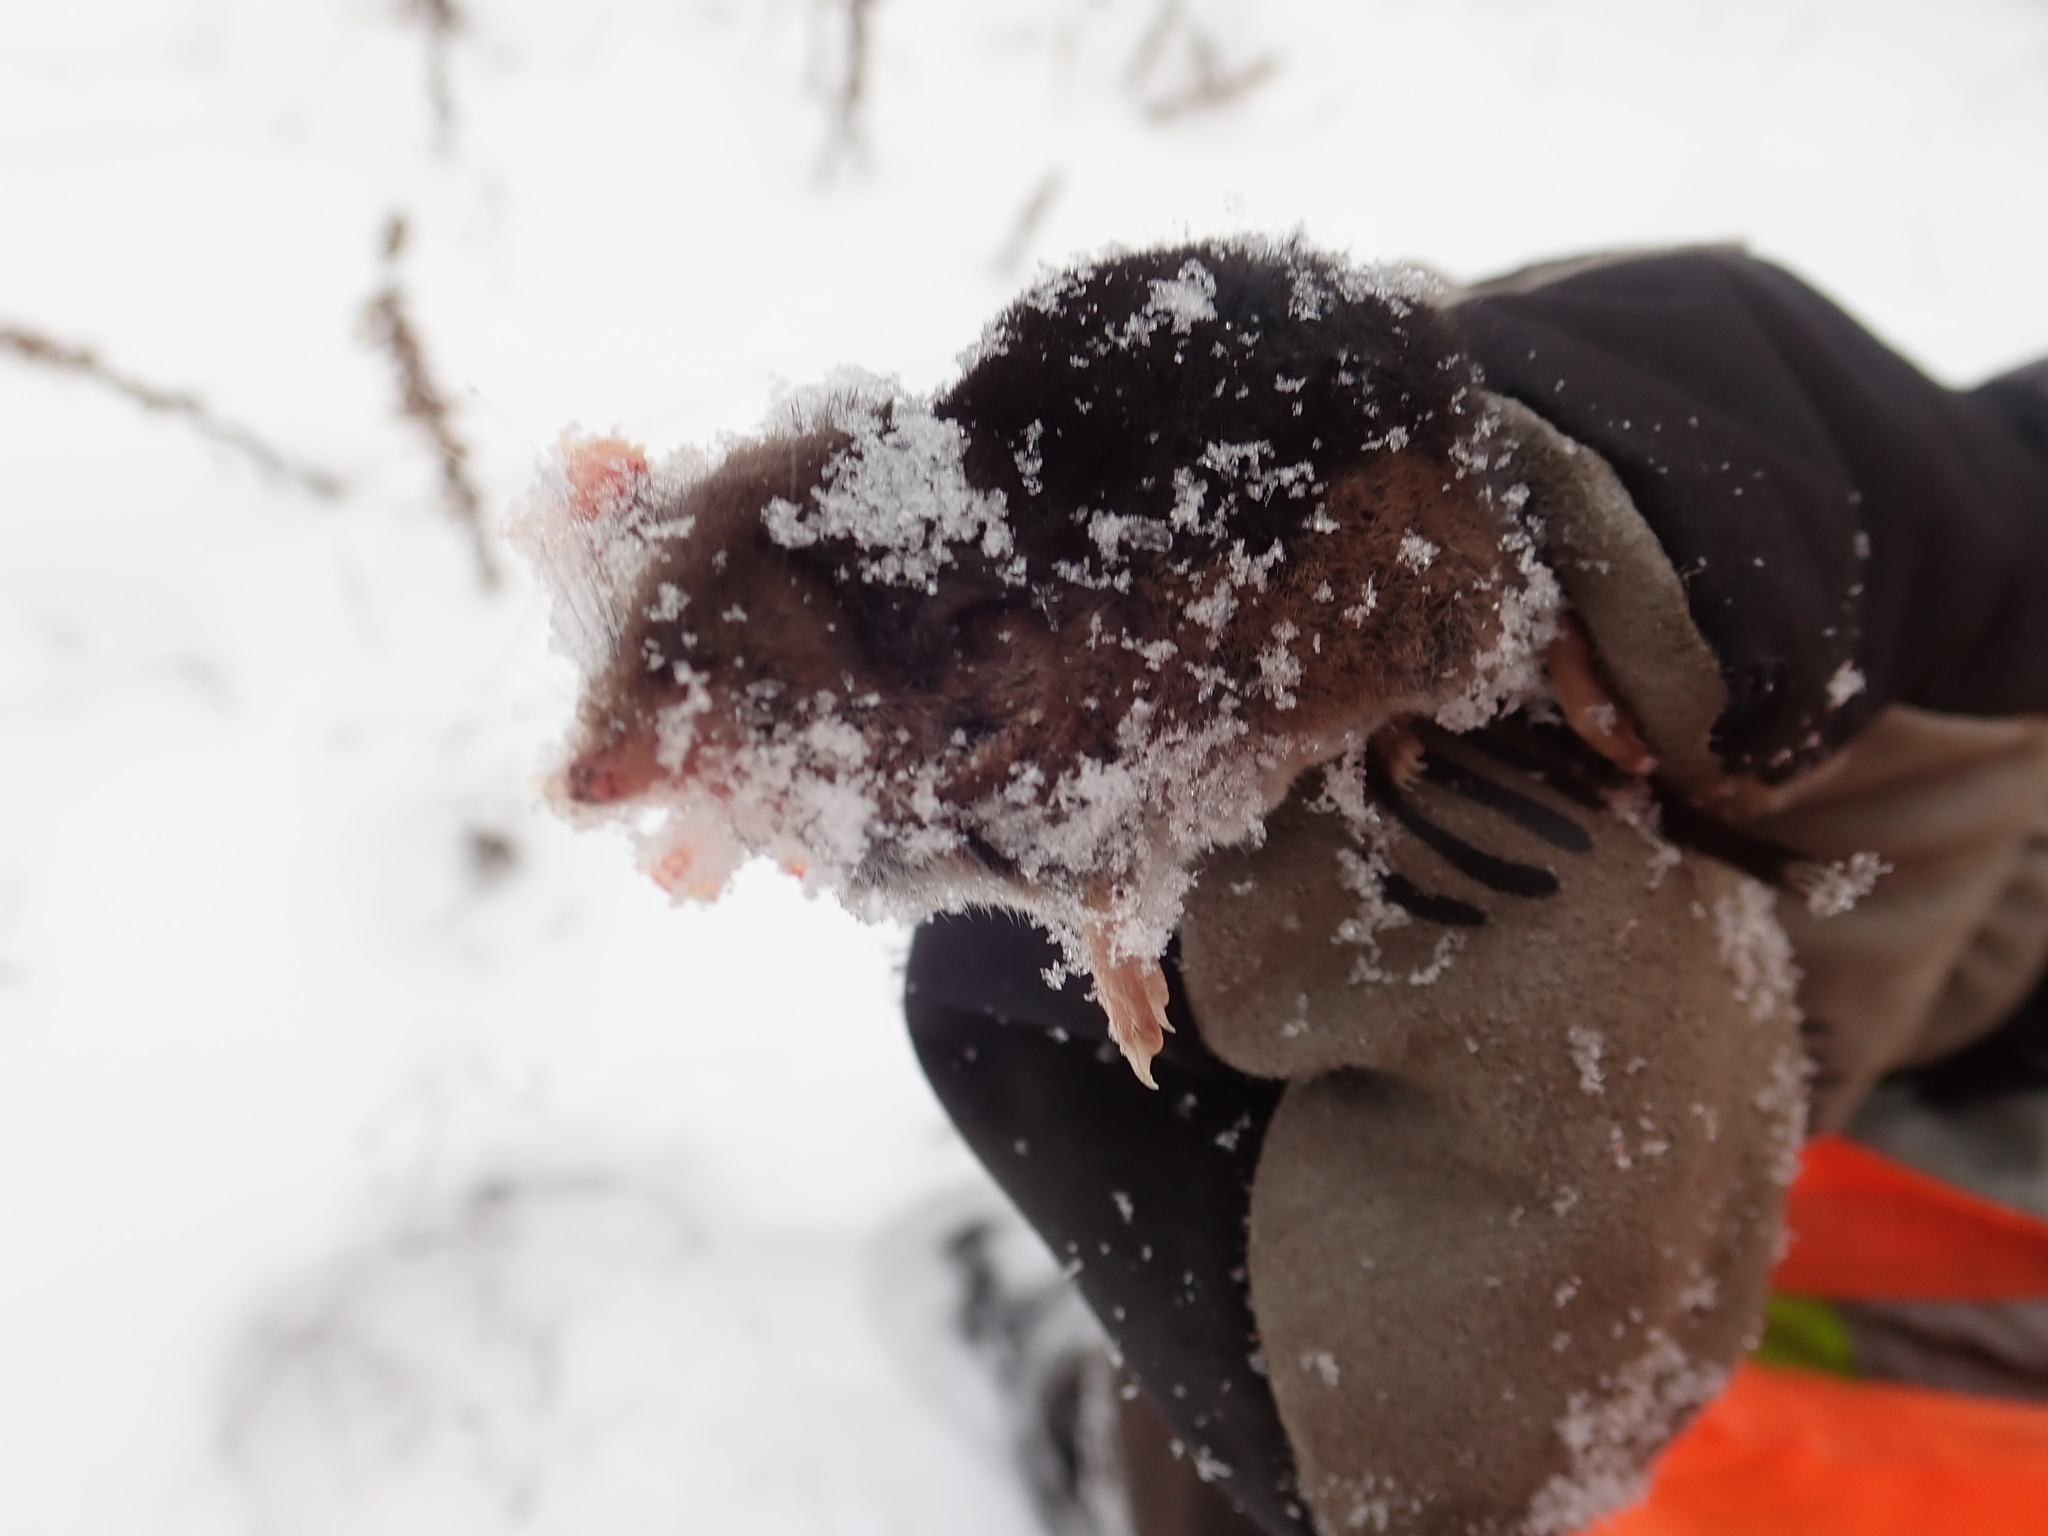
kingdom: Animalia
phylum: Chordata
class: Mammalia
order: Soricomorpha
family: Soricidae
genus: Sorex
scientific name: Sorex arcticus
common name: Arctic shrew
